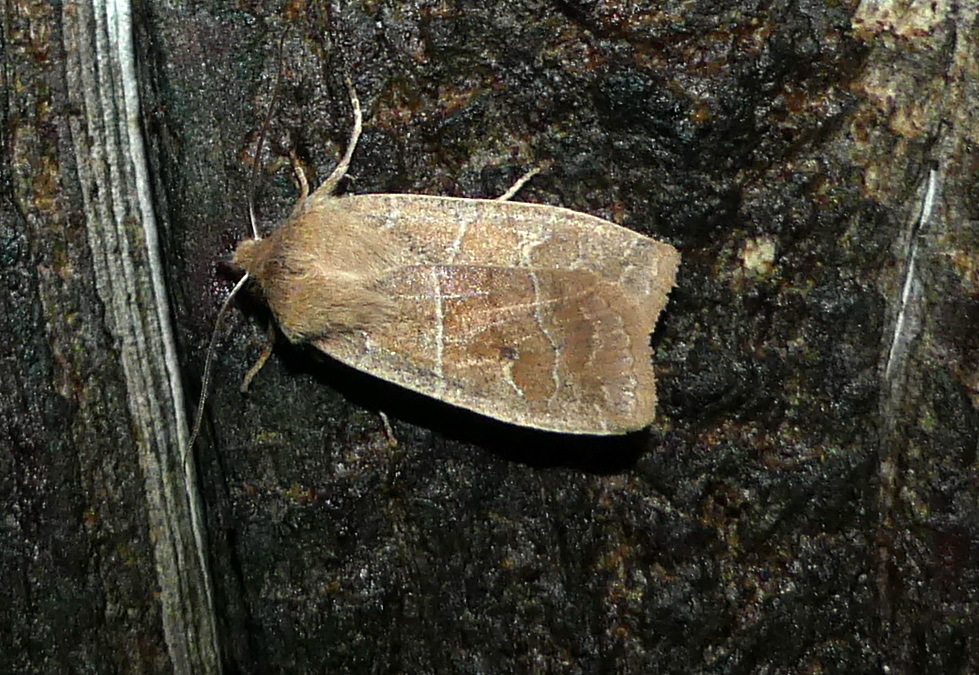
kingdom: Animalia
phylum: Arthropoda
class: Insecta
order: Lepidoptera
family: Noctuidae
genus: Eupsilia
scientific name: Eupsilia morrisoni
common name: Morrison's sallow
